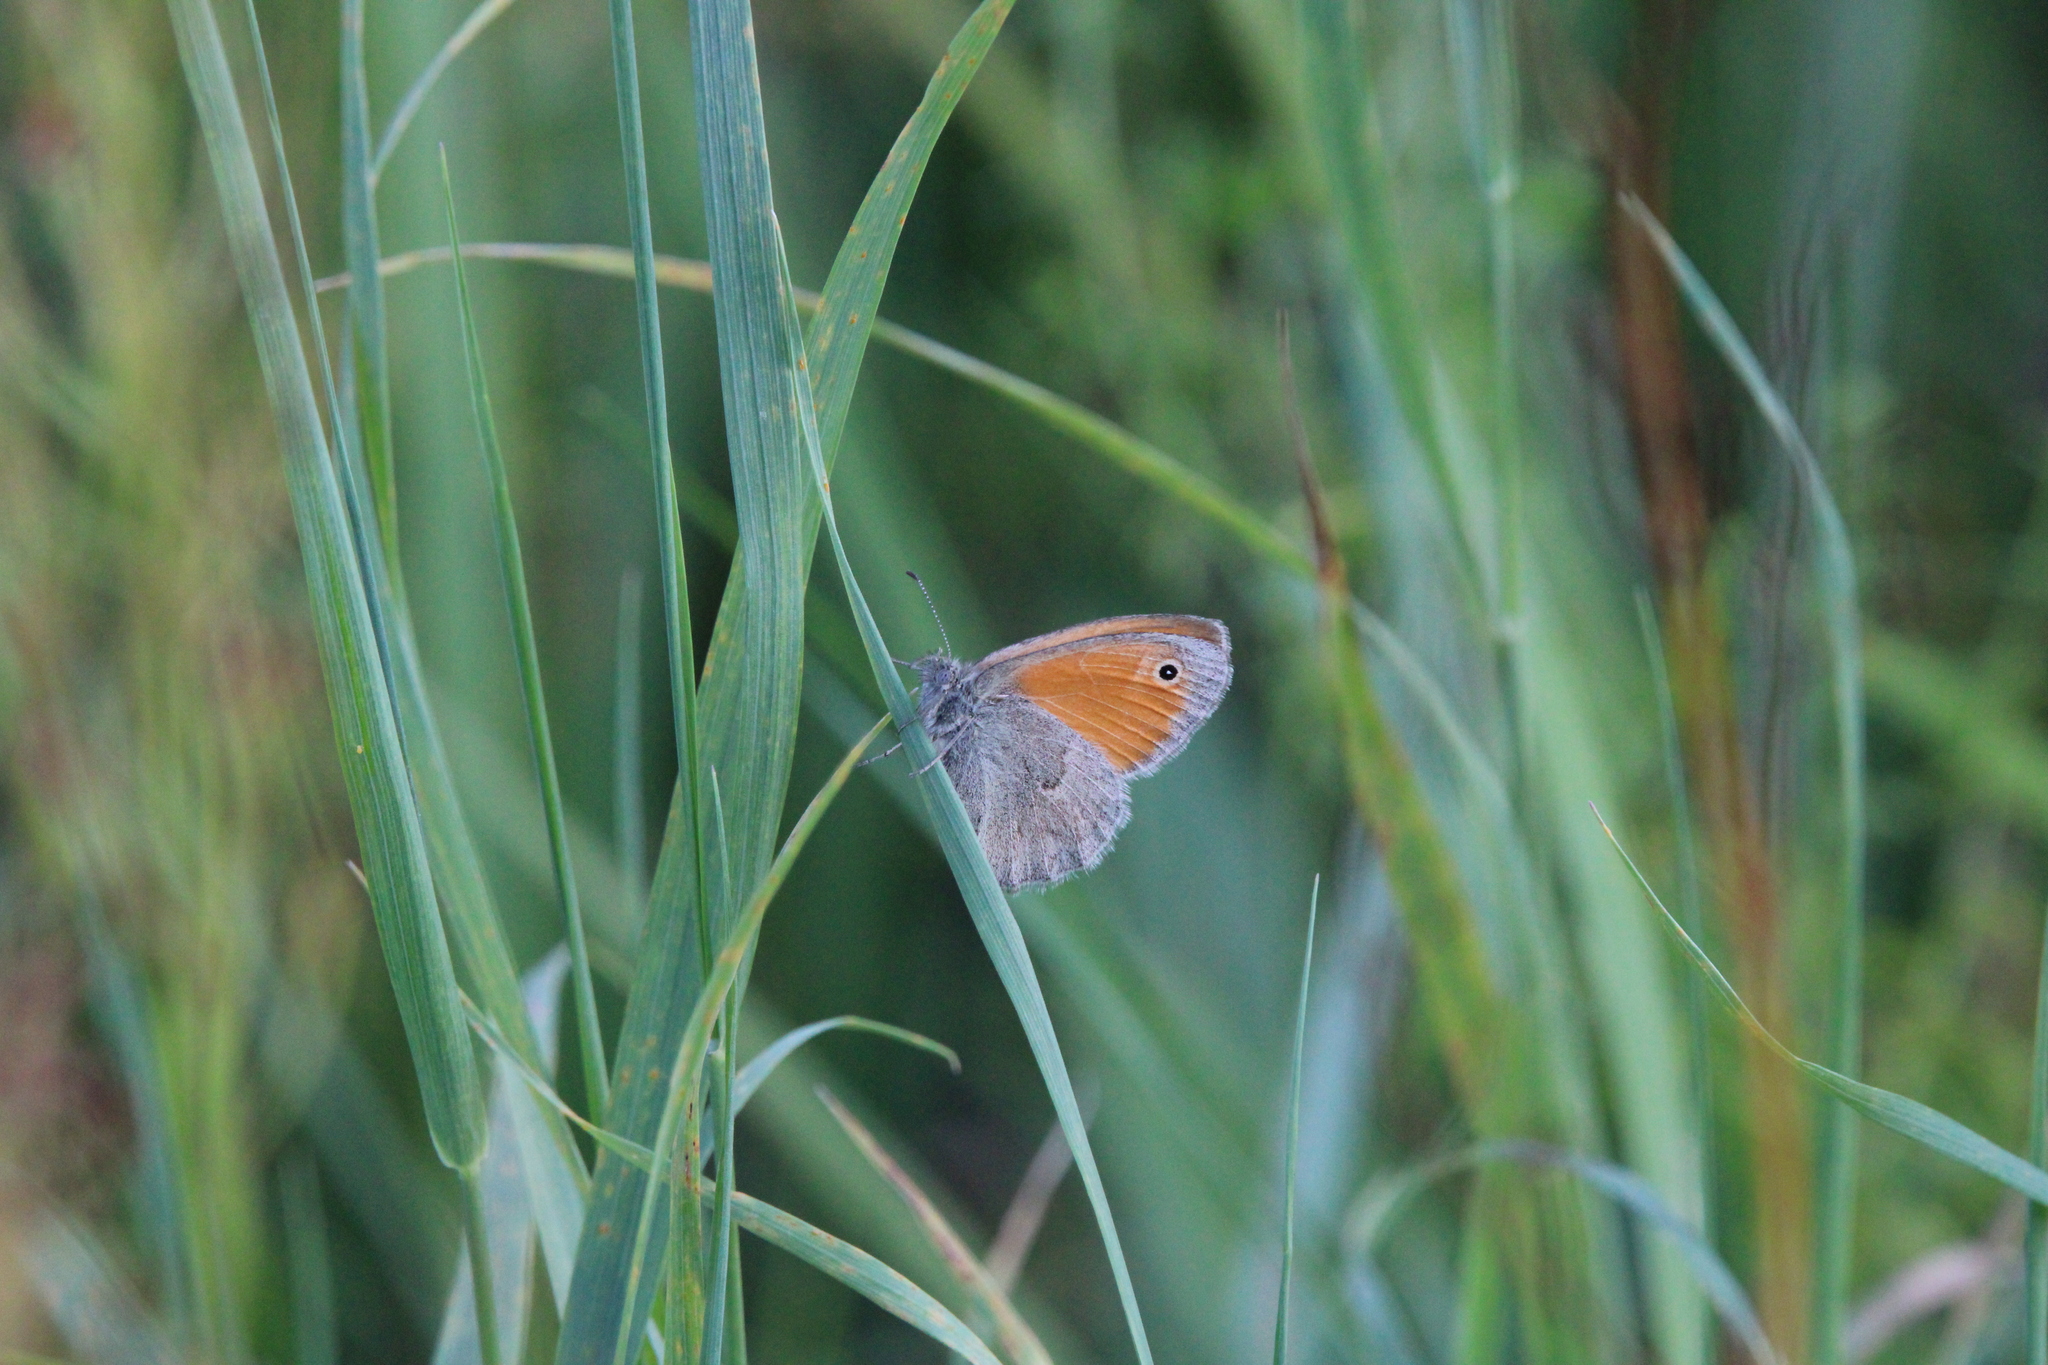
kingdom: Animalia
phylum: Arthropoda
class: Insecta
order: Lepidoptera
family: Nymphalidae
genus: Coenonympha
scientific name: Coenonympha pamphilus
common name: Small heath
